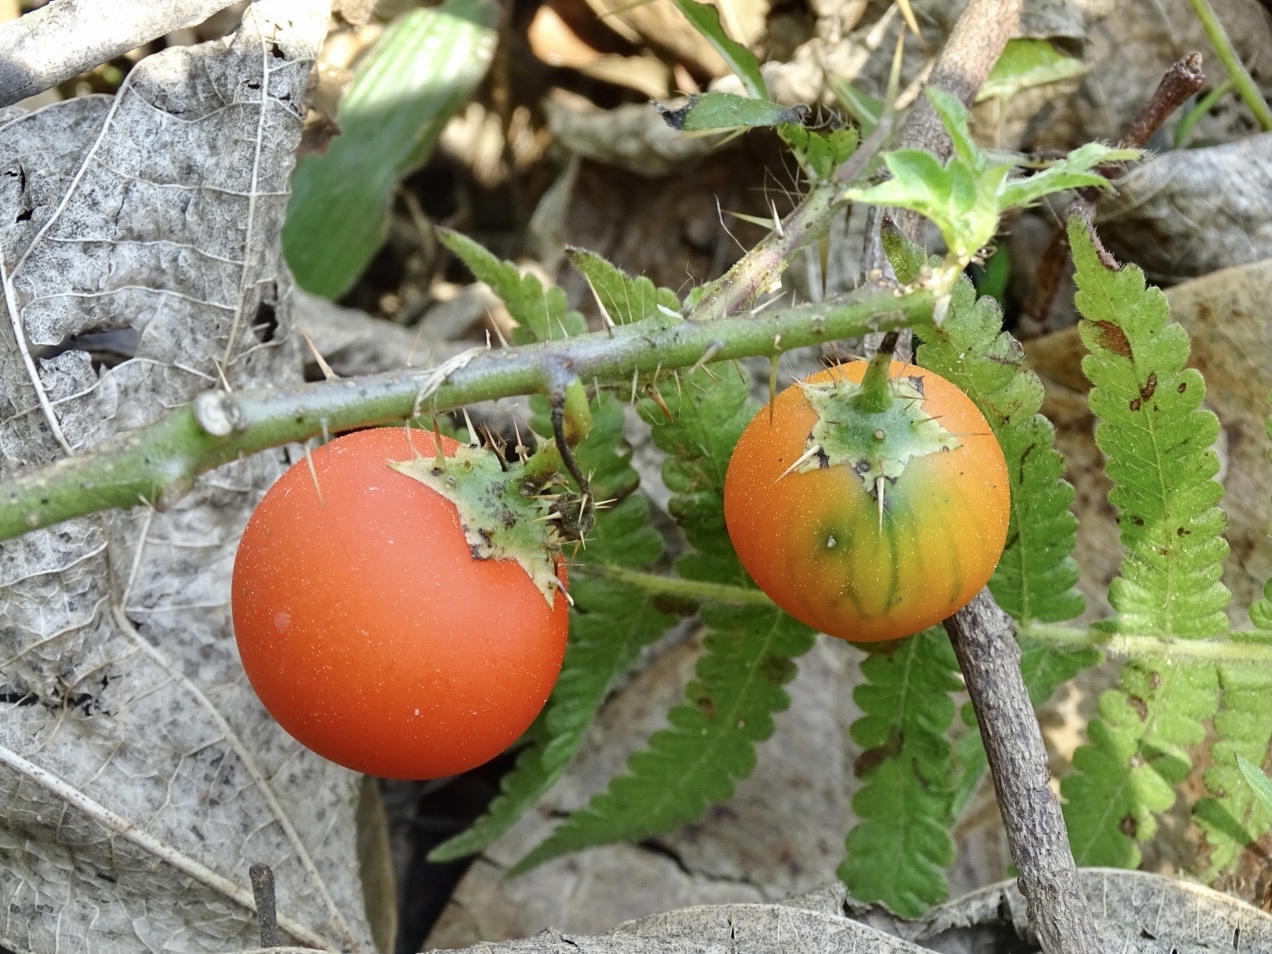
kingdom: Plantae
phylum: Tracheophyta
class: Magnoliopsida
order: Solanales
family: Solanaceae
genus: Solanum
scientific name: Solanum capsicoides
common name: Cockroach berry
